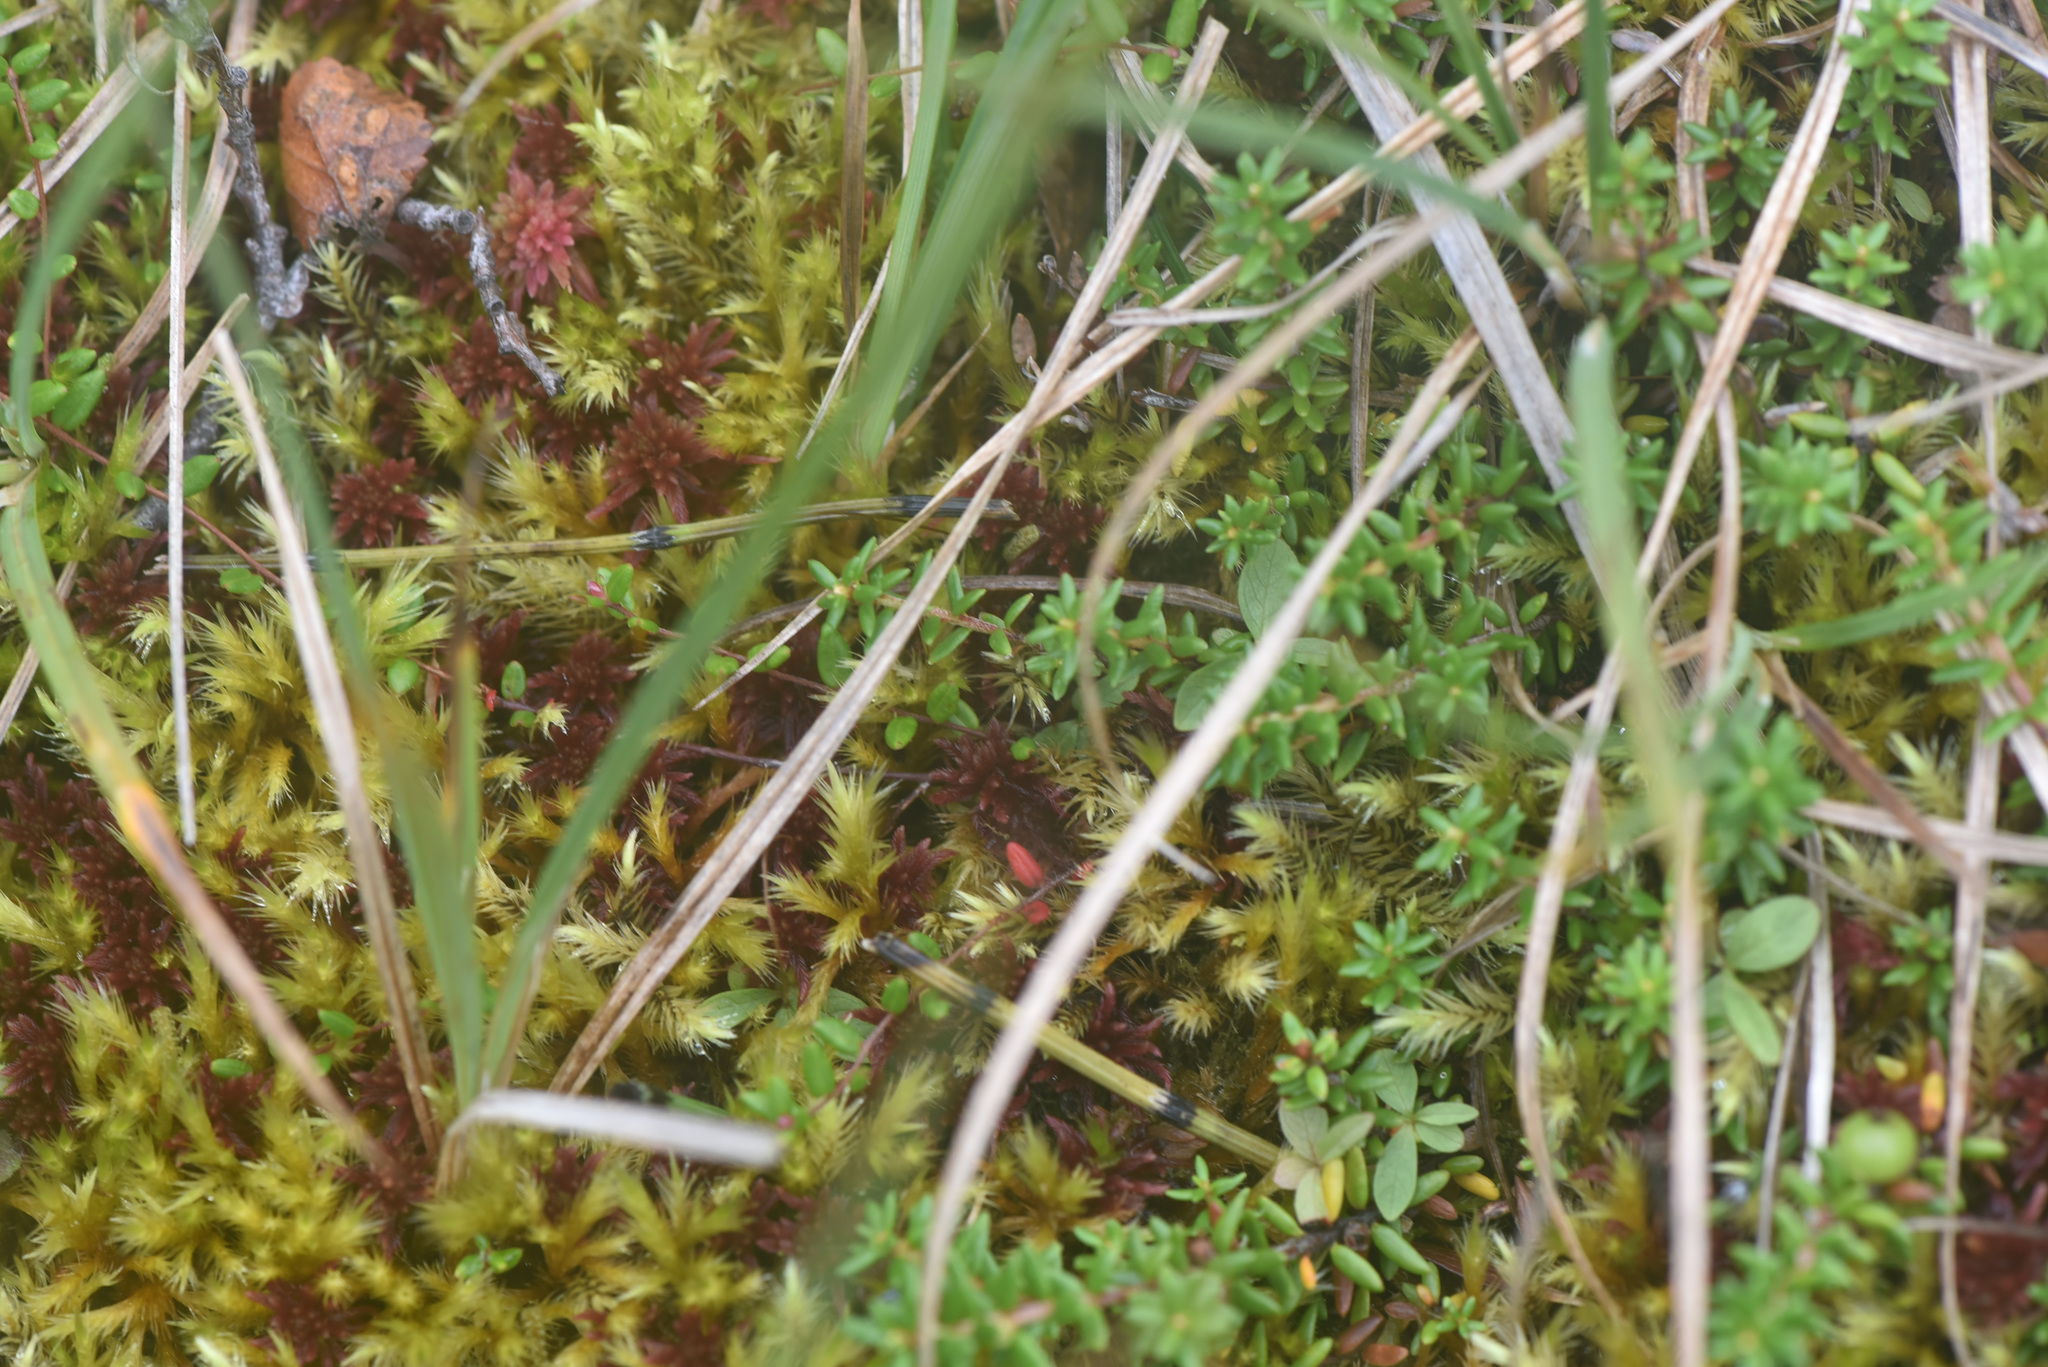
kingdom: Plantae
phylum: Tracheophyta
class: Magnoliopsida
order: Ericales
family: Ericaceae
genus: Empetrum
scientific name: Empetrum nigrum
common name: Black crowberry
